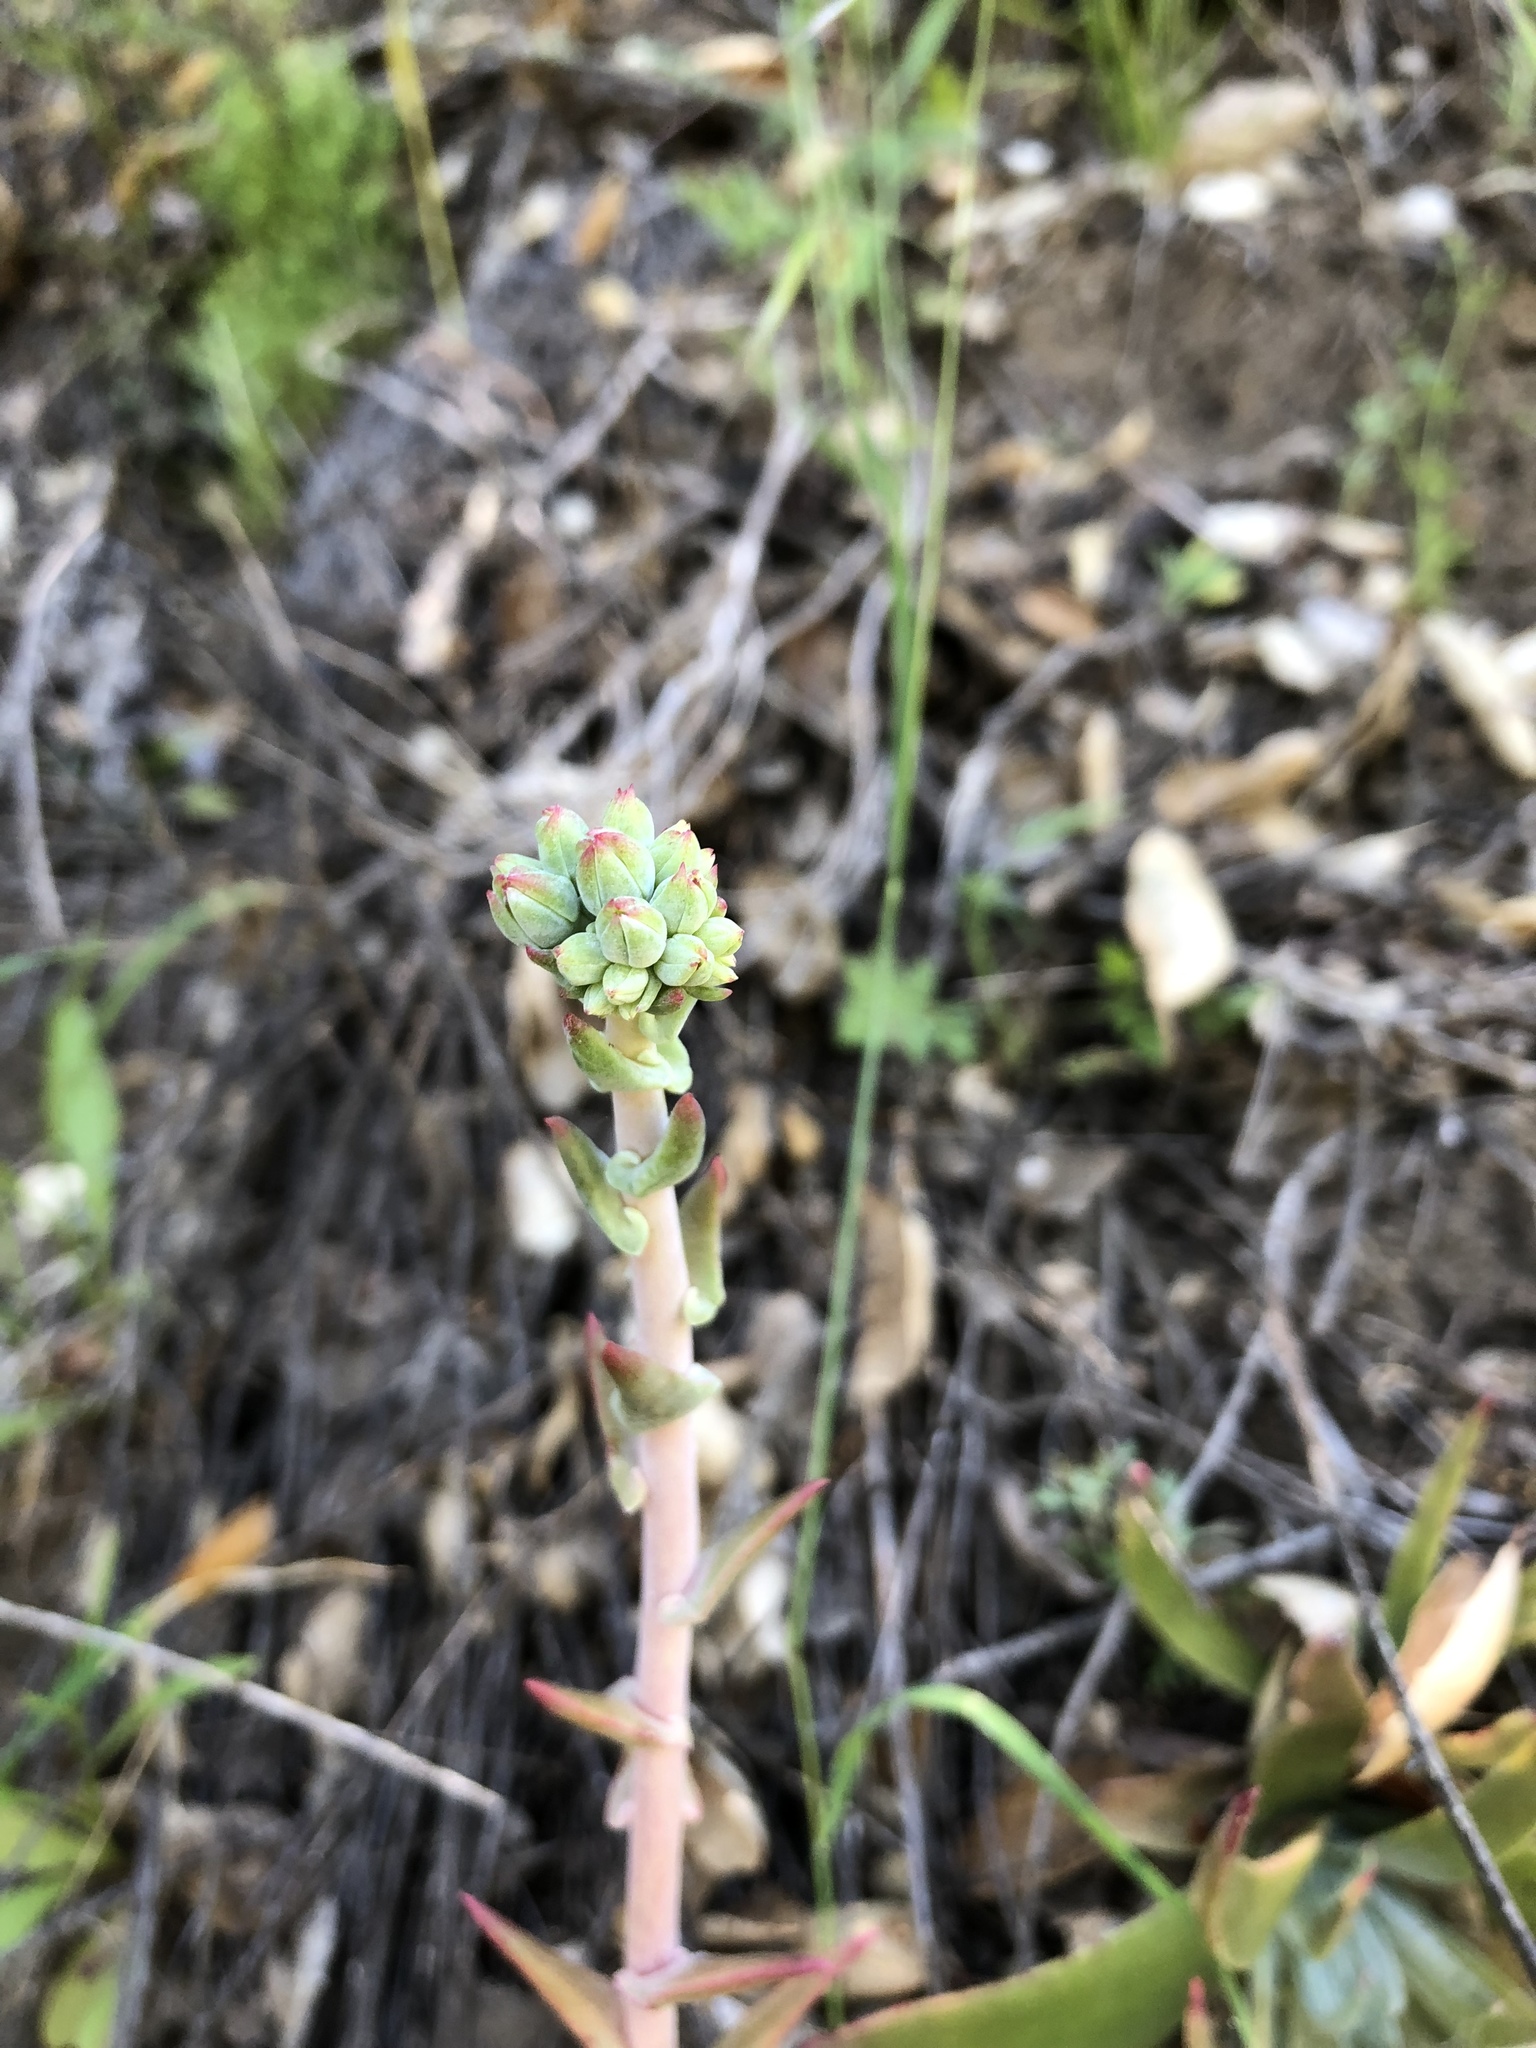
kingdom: Plantae
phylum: Tracheophyta
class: Magnoliopsida
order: Saxifragales
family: Crassulaceae
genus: Dudleya
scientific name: Dudleya lanceolata
